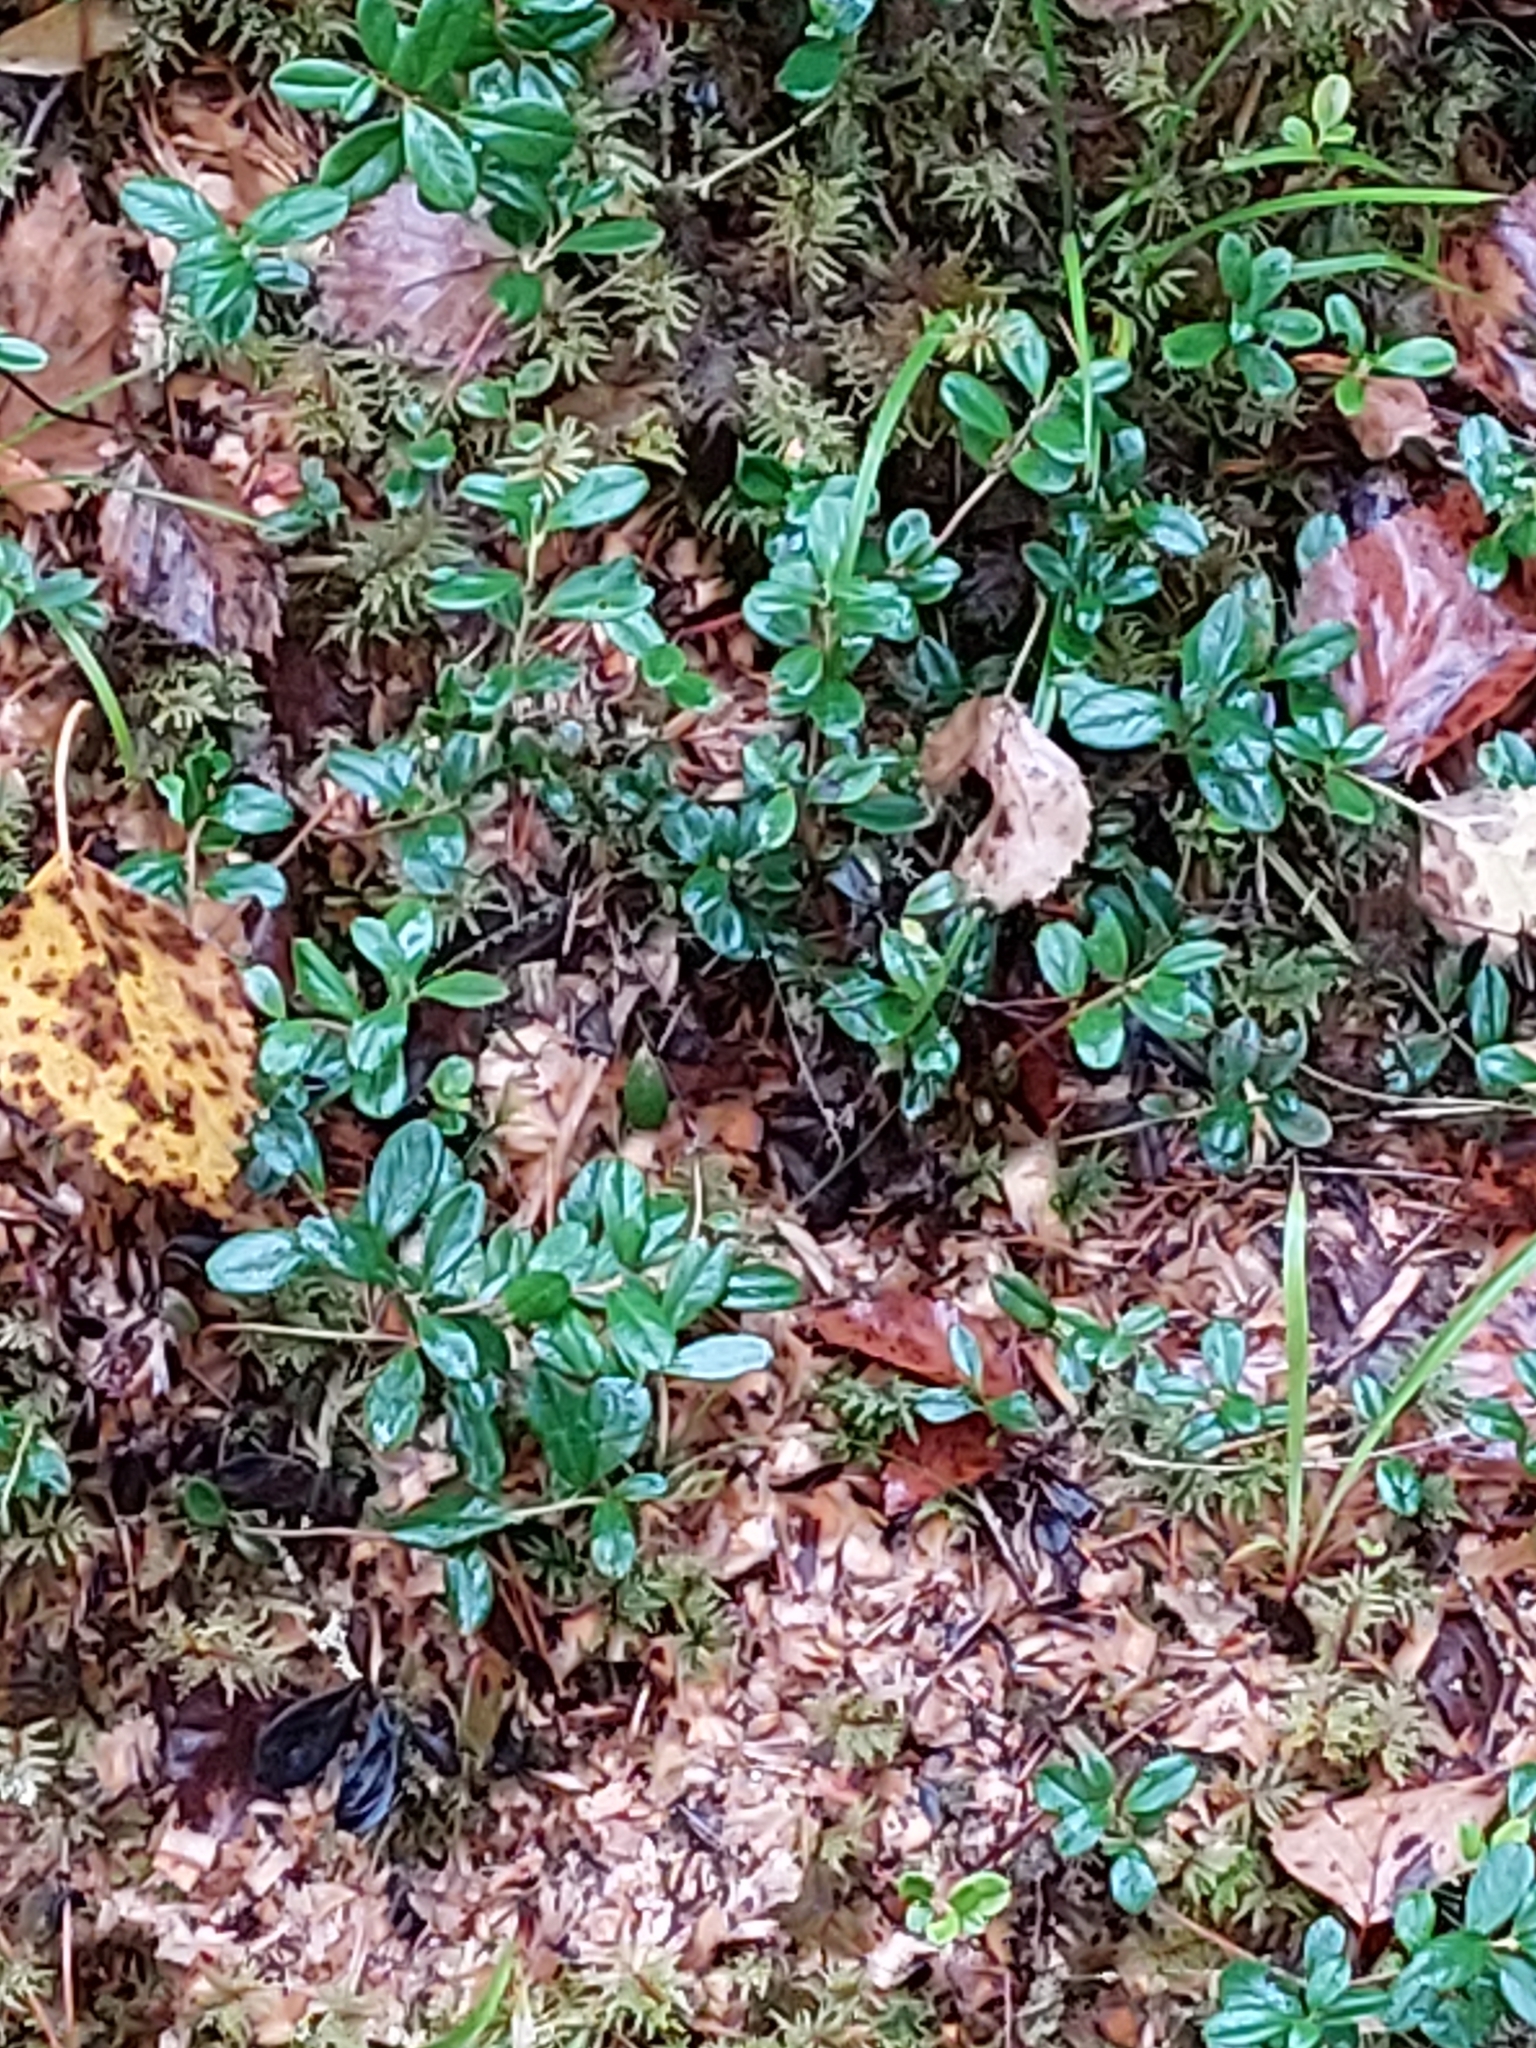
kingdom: Plantae
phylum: Tracheophyta
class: Magnoliopsida
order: Ericales
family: Ericaceae
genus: Vaccinium
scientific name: Vaccinium vitis-idaea
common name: Cowberry
